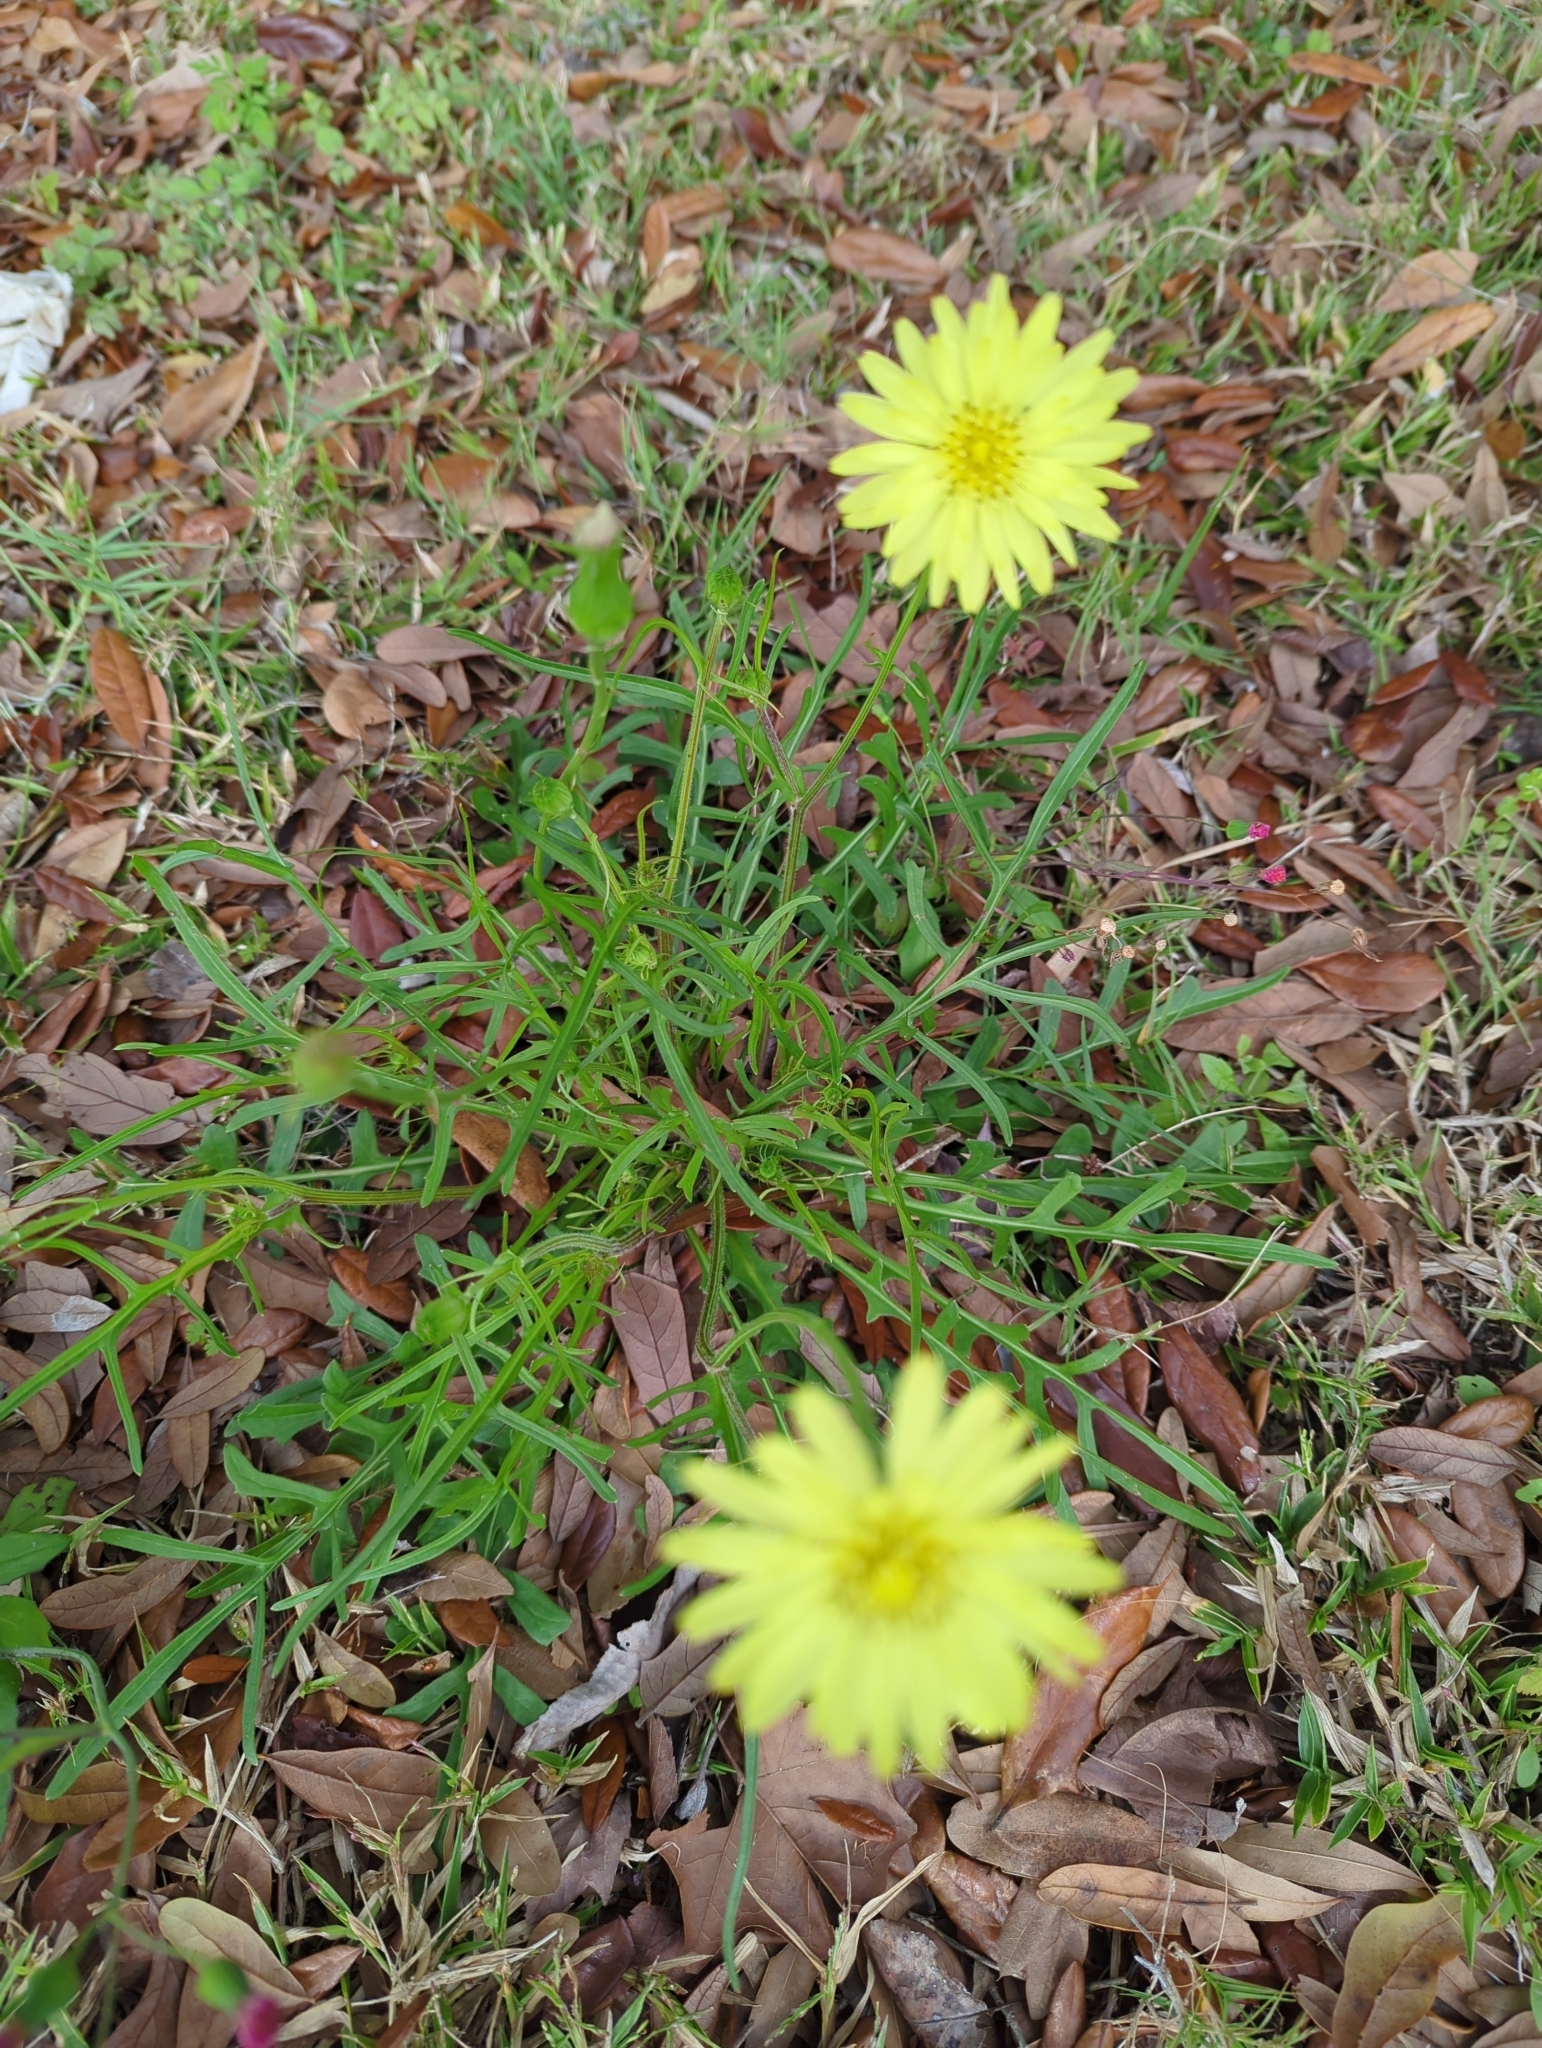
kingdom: Plantae
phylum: Tracheophyta
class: Magnoliopsida
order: Asterales
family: Asteraceae
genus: Pyrrhopappus
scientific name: Pyrrhopappus carolinianus
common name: Carolina desert-chicory
